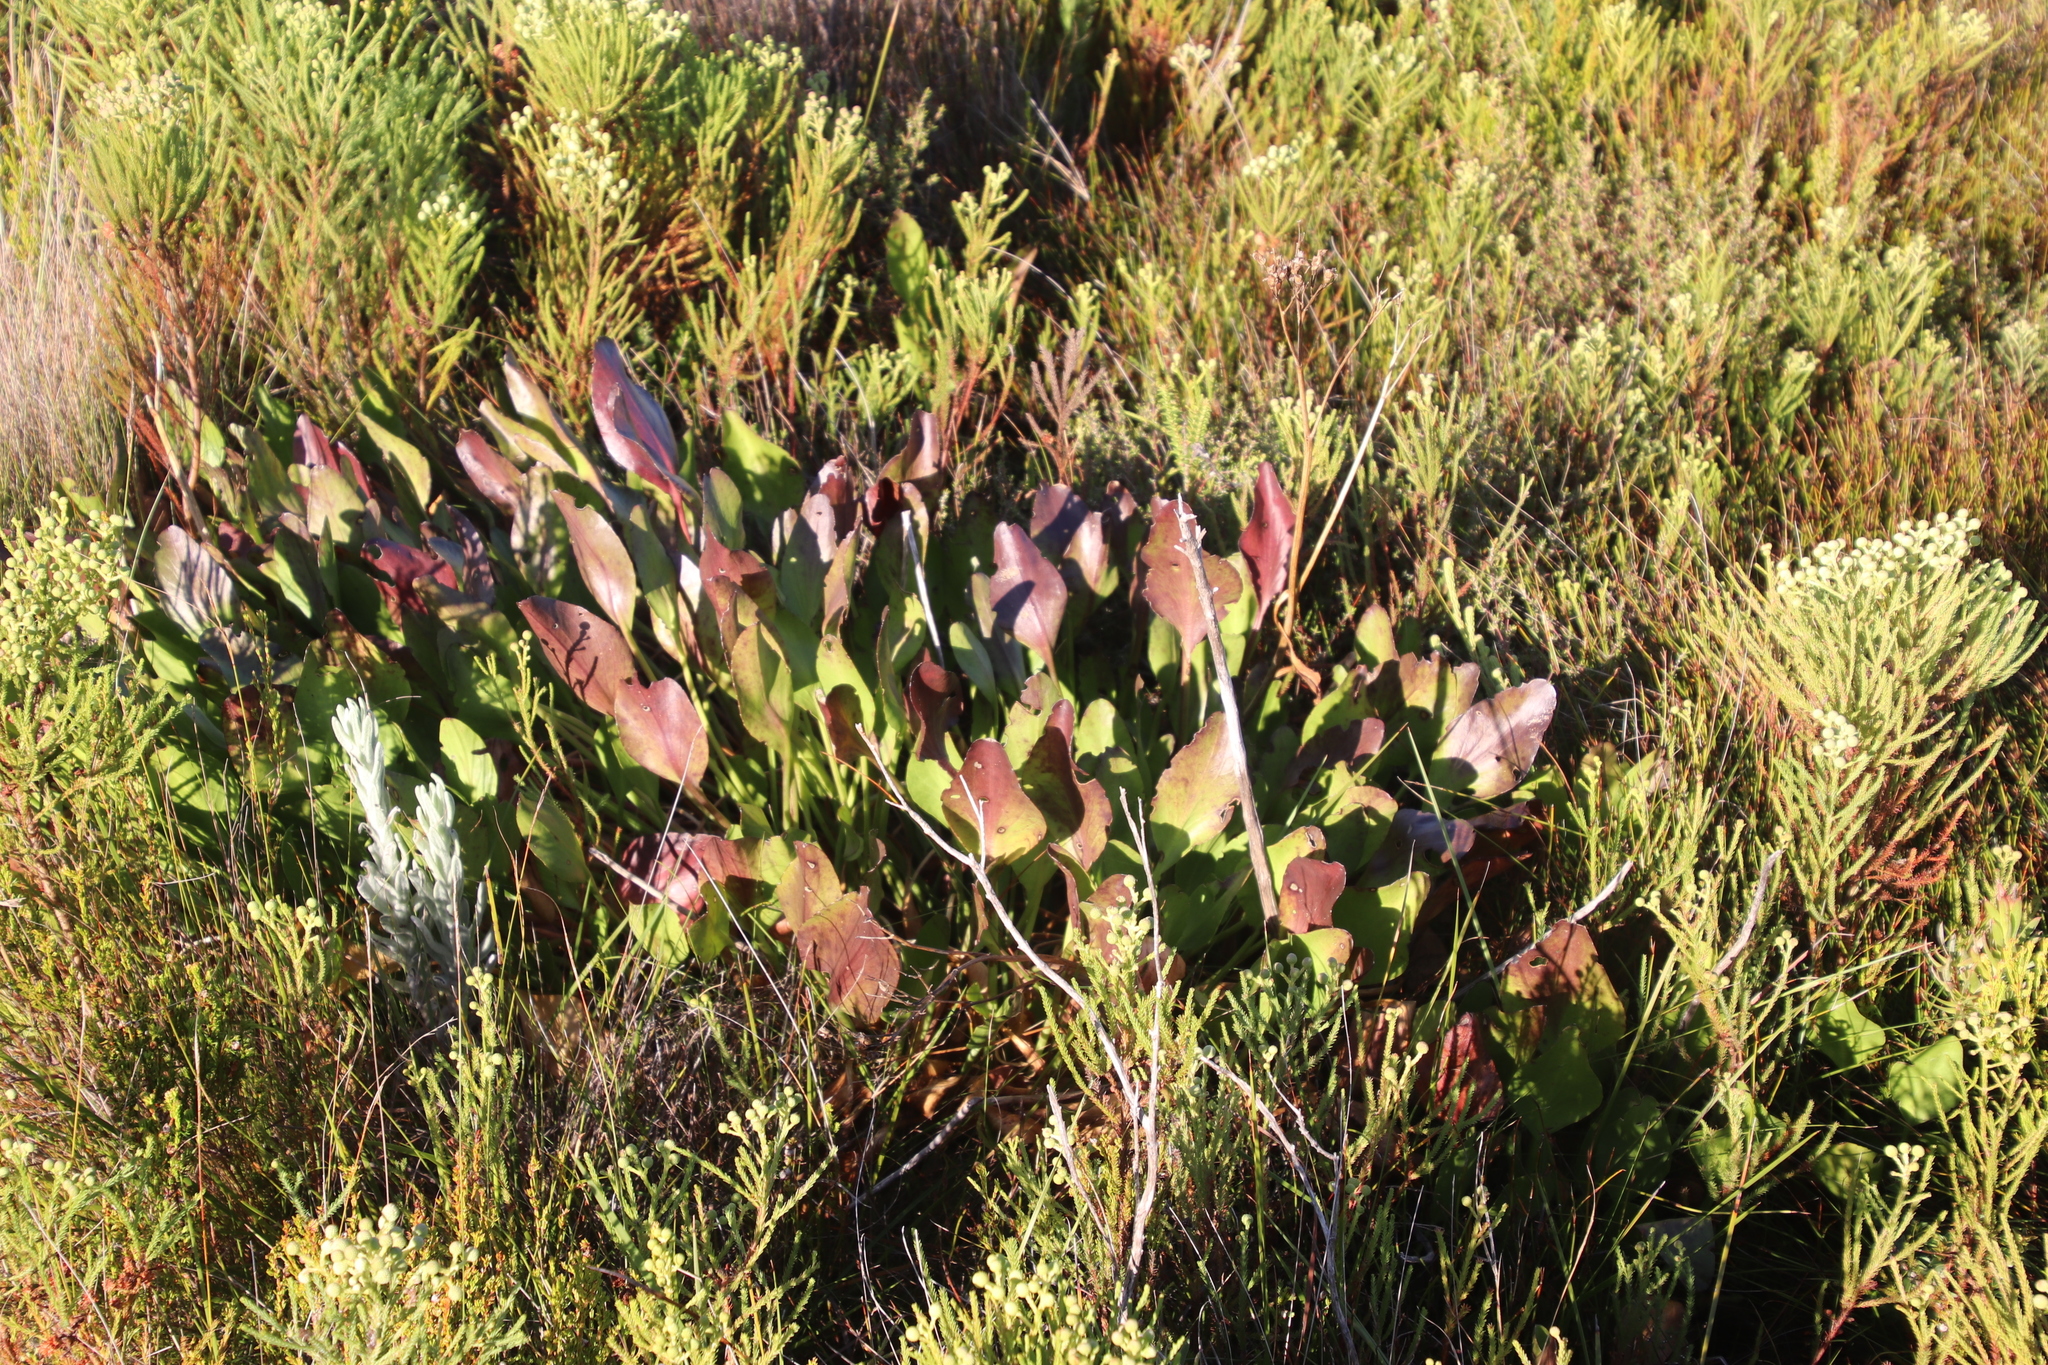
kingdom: Plantae
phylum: Tracheophyta
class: Magnoliopsida
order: Asterales
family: Menyanthaceae
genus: Villarsia
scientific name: Villarsia goldblattiana
